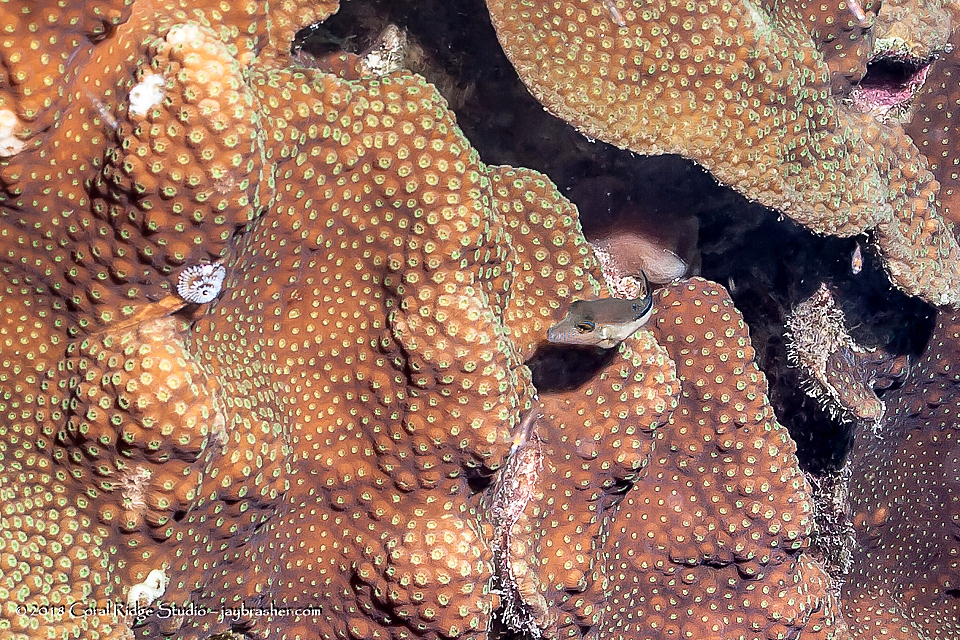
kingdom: Animalia
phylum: Chordata
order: Tetraodontiformes
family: Tetraodontidae
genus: Canthigaster
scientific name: Canthigaster rostrata
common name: Caribbean sharpnose-puffer
